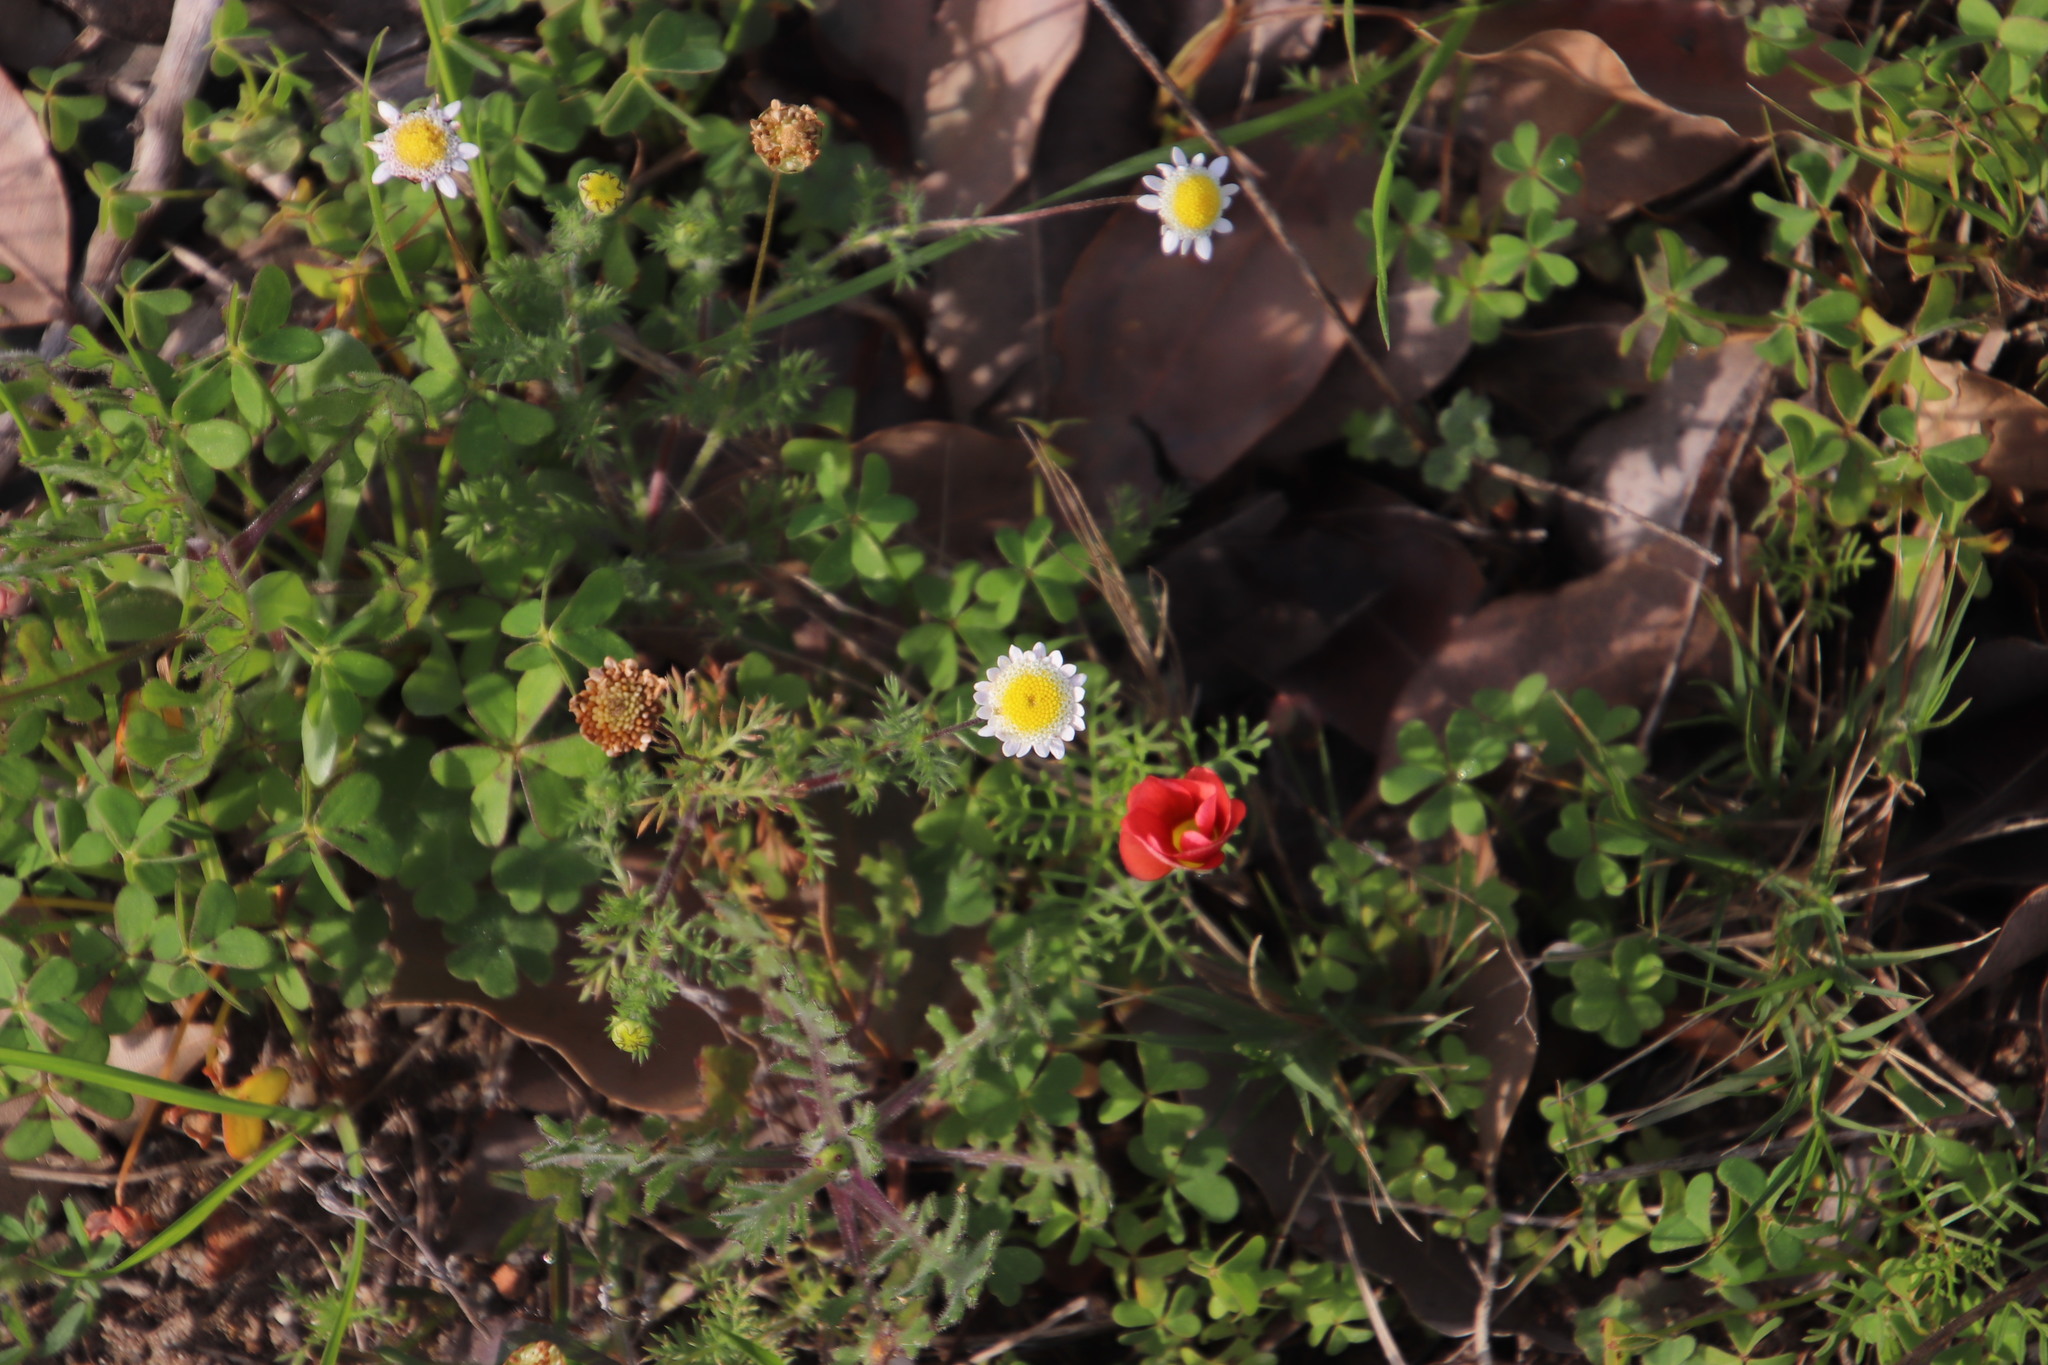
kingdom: Plantae
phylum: Tracheophyta
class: Magnoliopsida
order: Asterales
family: Asteraceae
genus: Cotula
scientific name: Cotula turbinata
